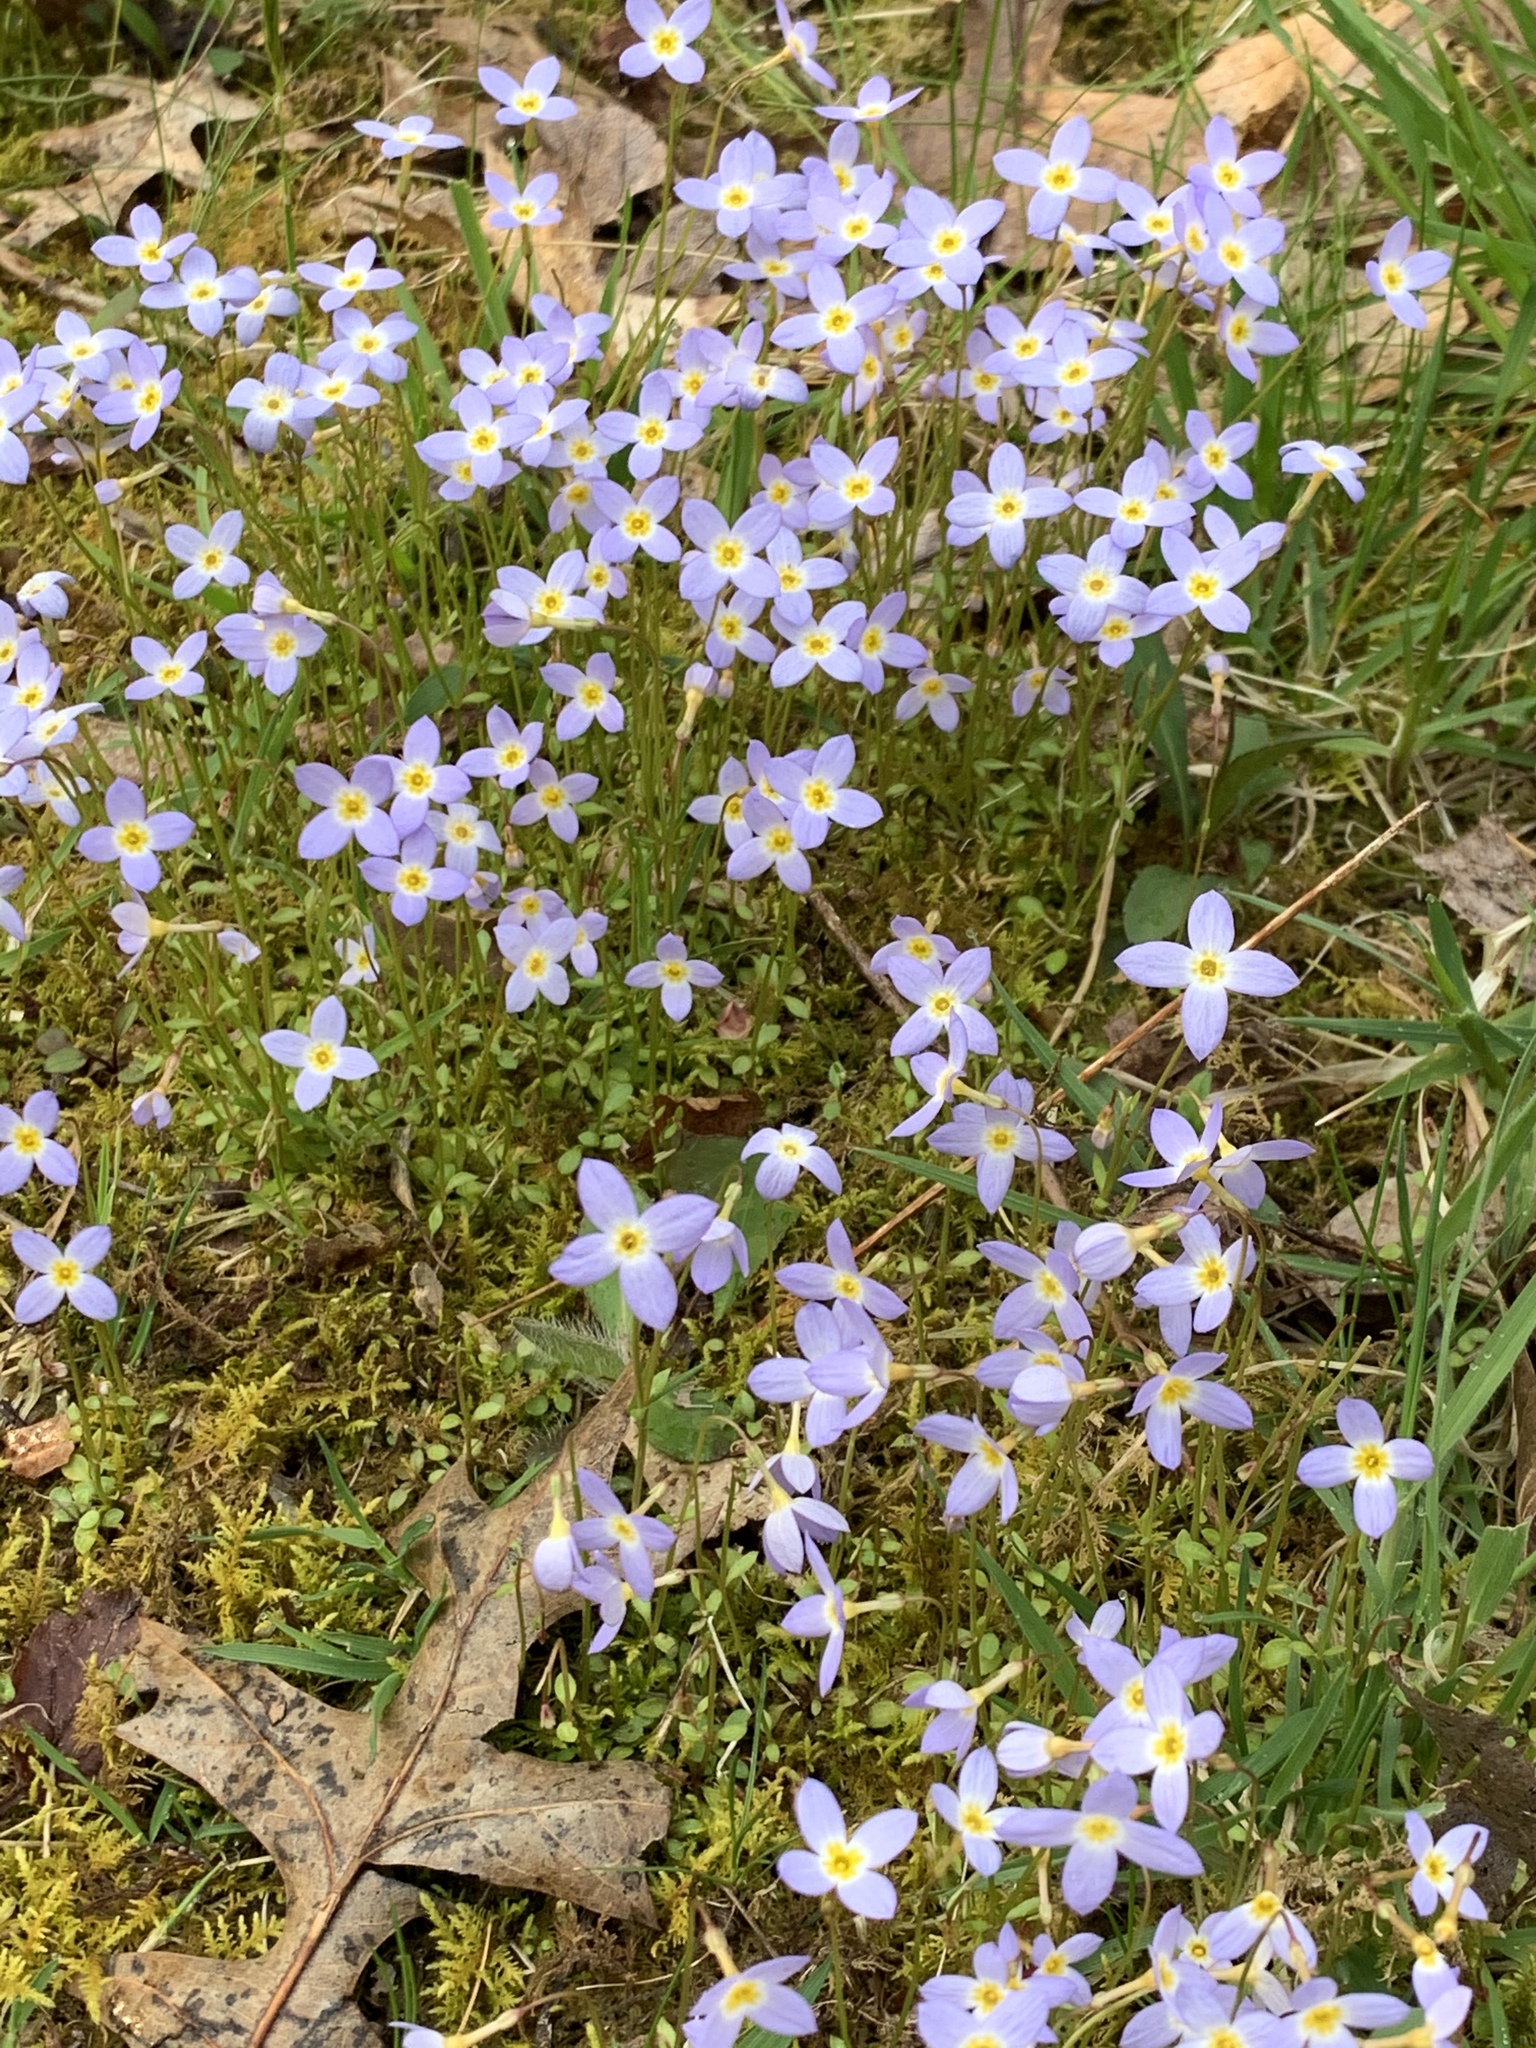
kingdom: Plantae
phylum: Tracheophyta
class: Magnoliopsida
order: Gentianales
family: Rubiaceae
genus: Houstonia
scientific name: Houstonia caerulea
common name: Bluets
